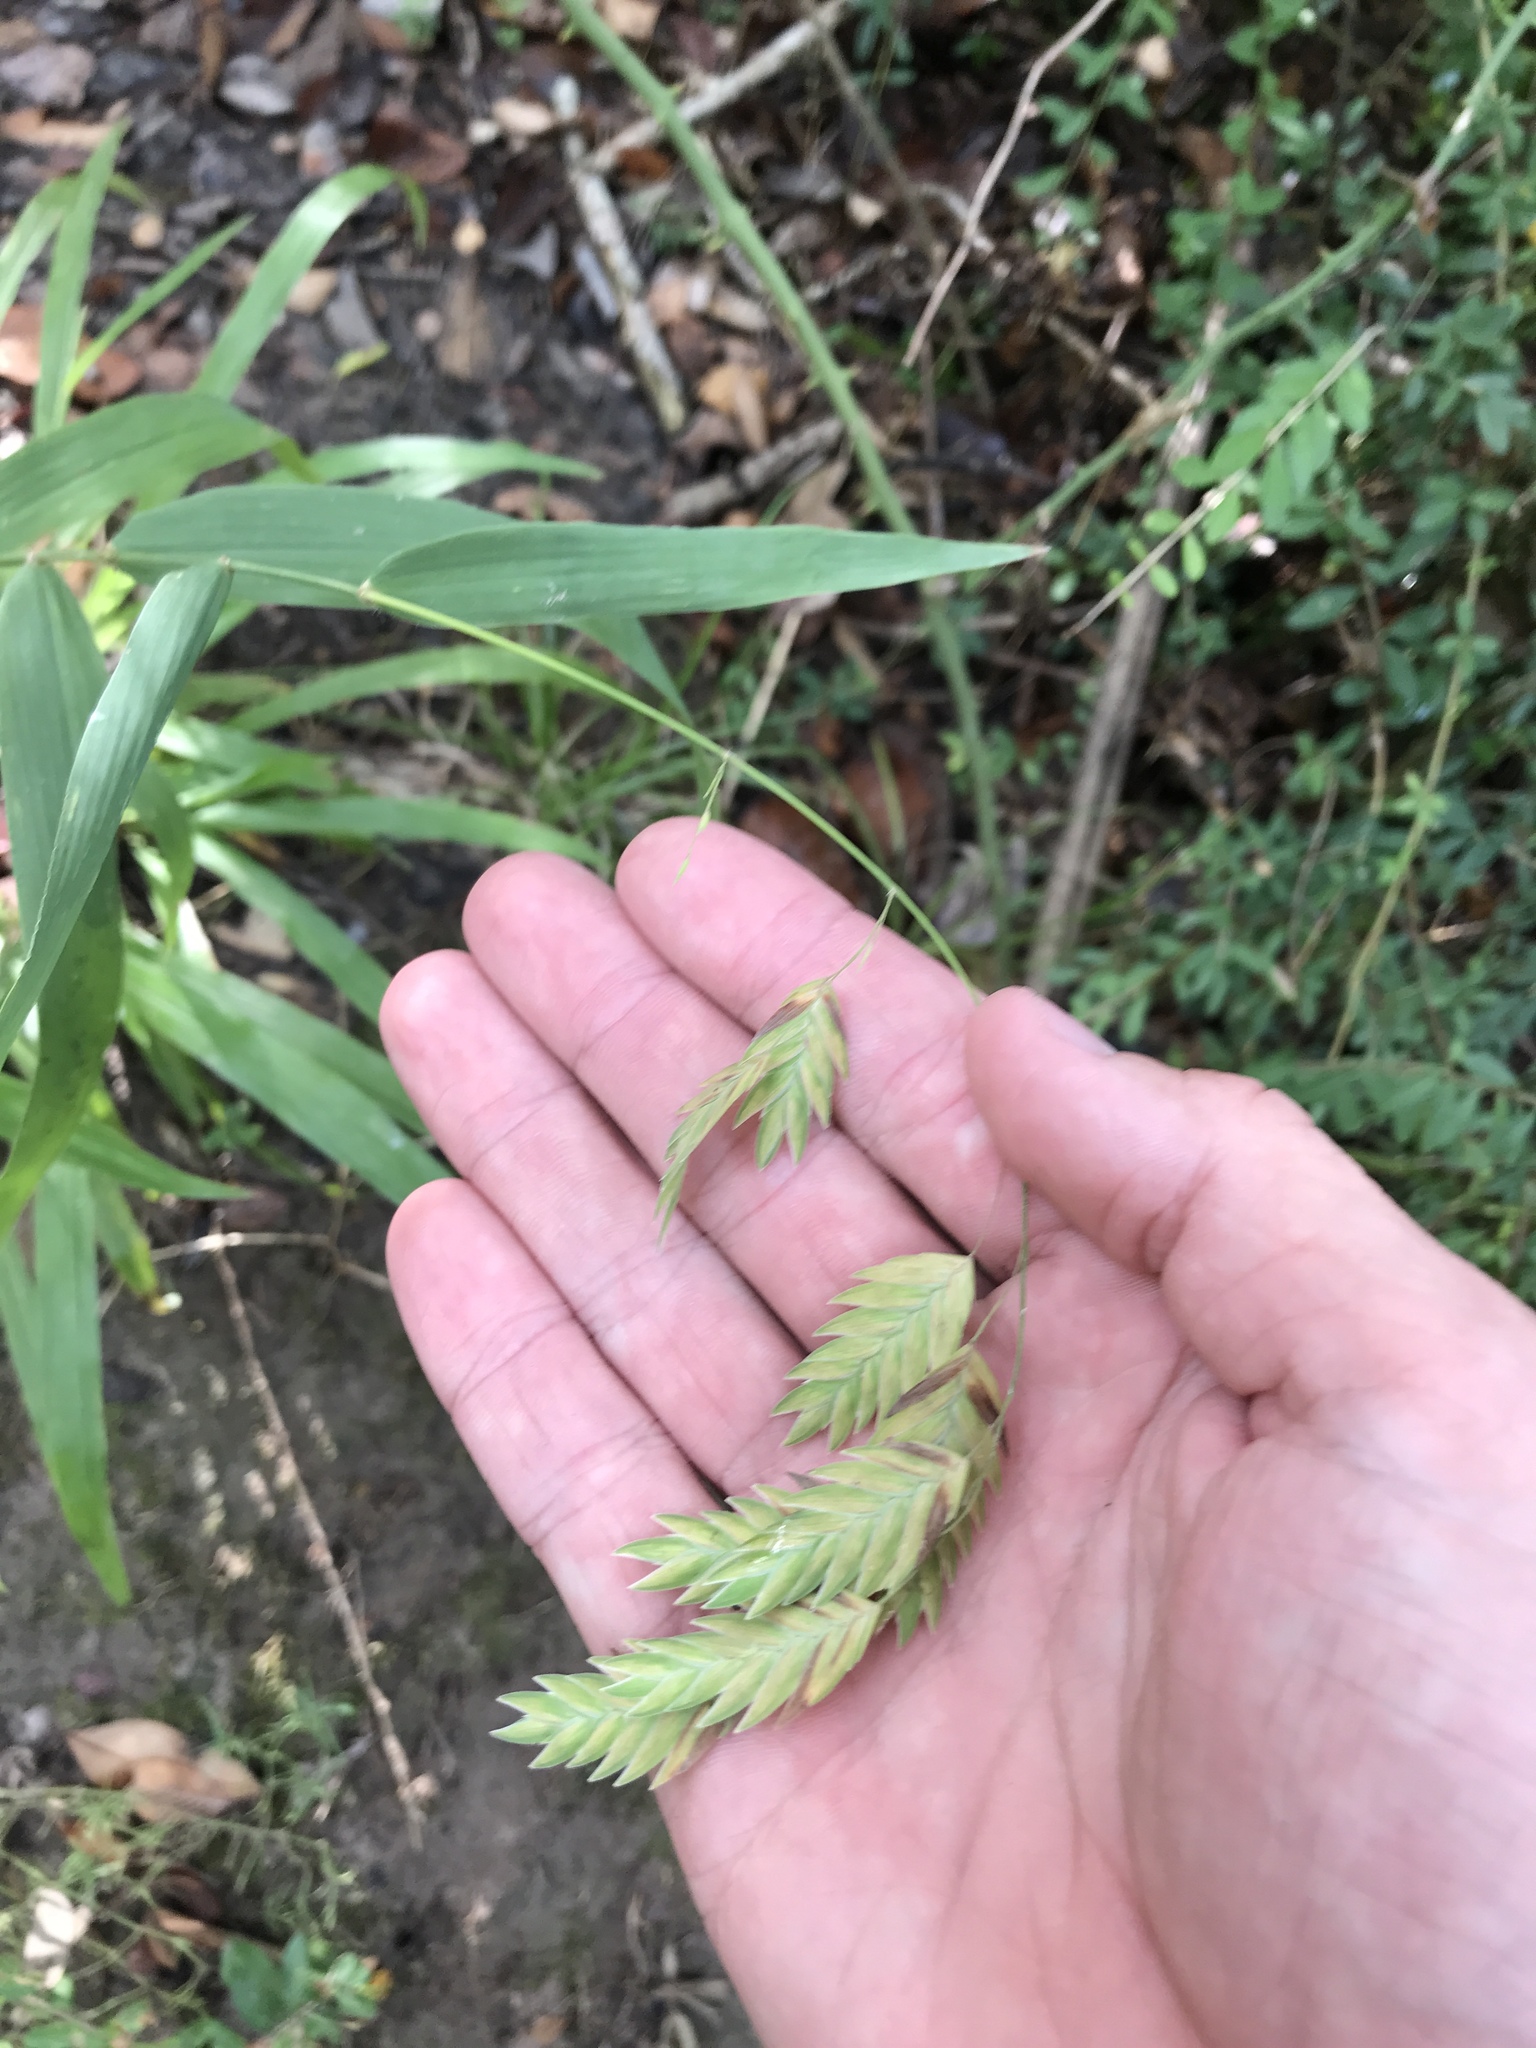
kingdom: Plantae
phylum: Tracheophyta
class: Liliopsida
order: Poales
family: Poaceae
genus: Chasmanthium
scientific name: Chasmanthium latifolium
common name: Broad-leaved chasmanthium
